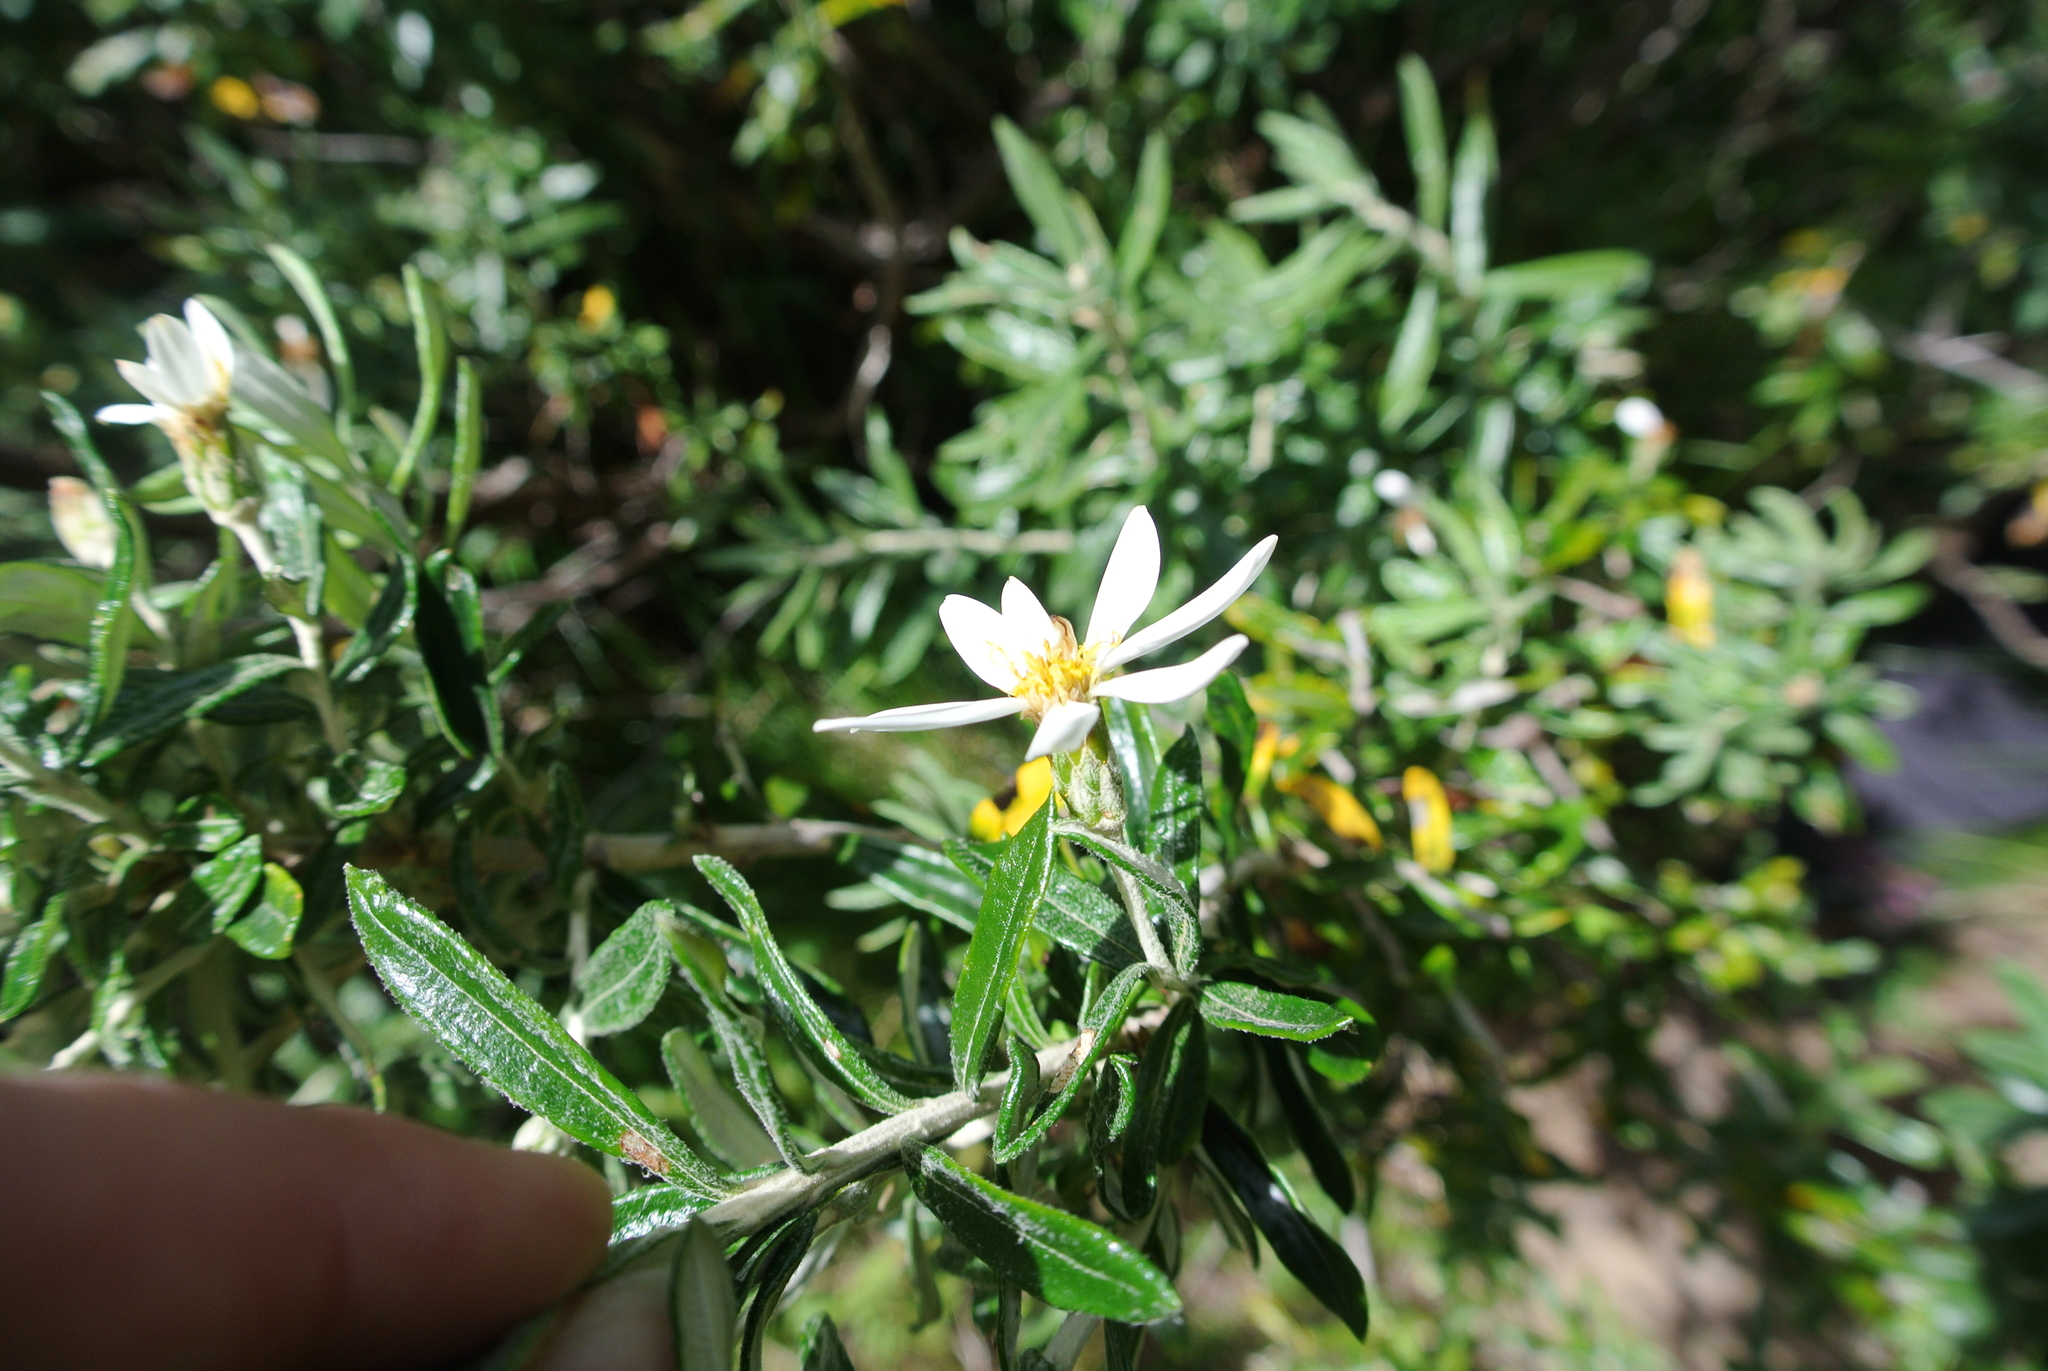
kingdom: Plantae
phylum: Tracheophyta
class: Magnoliopsida
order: Asterales
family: Asteraceae
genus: Chiliotrichum
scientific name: Chiliotrichum diffusum
